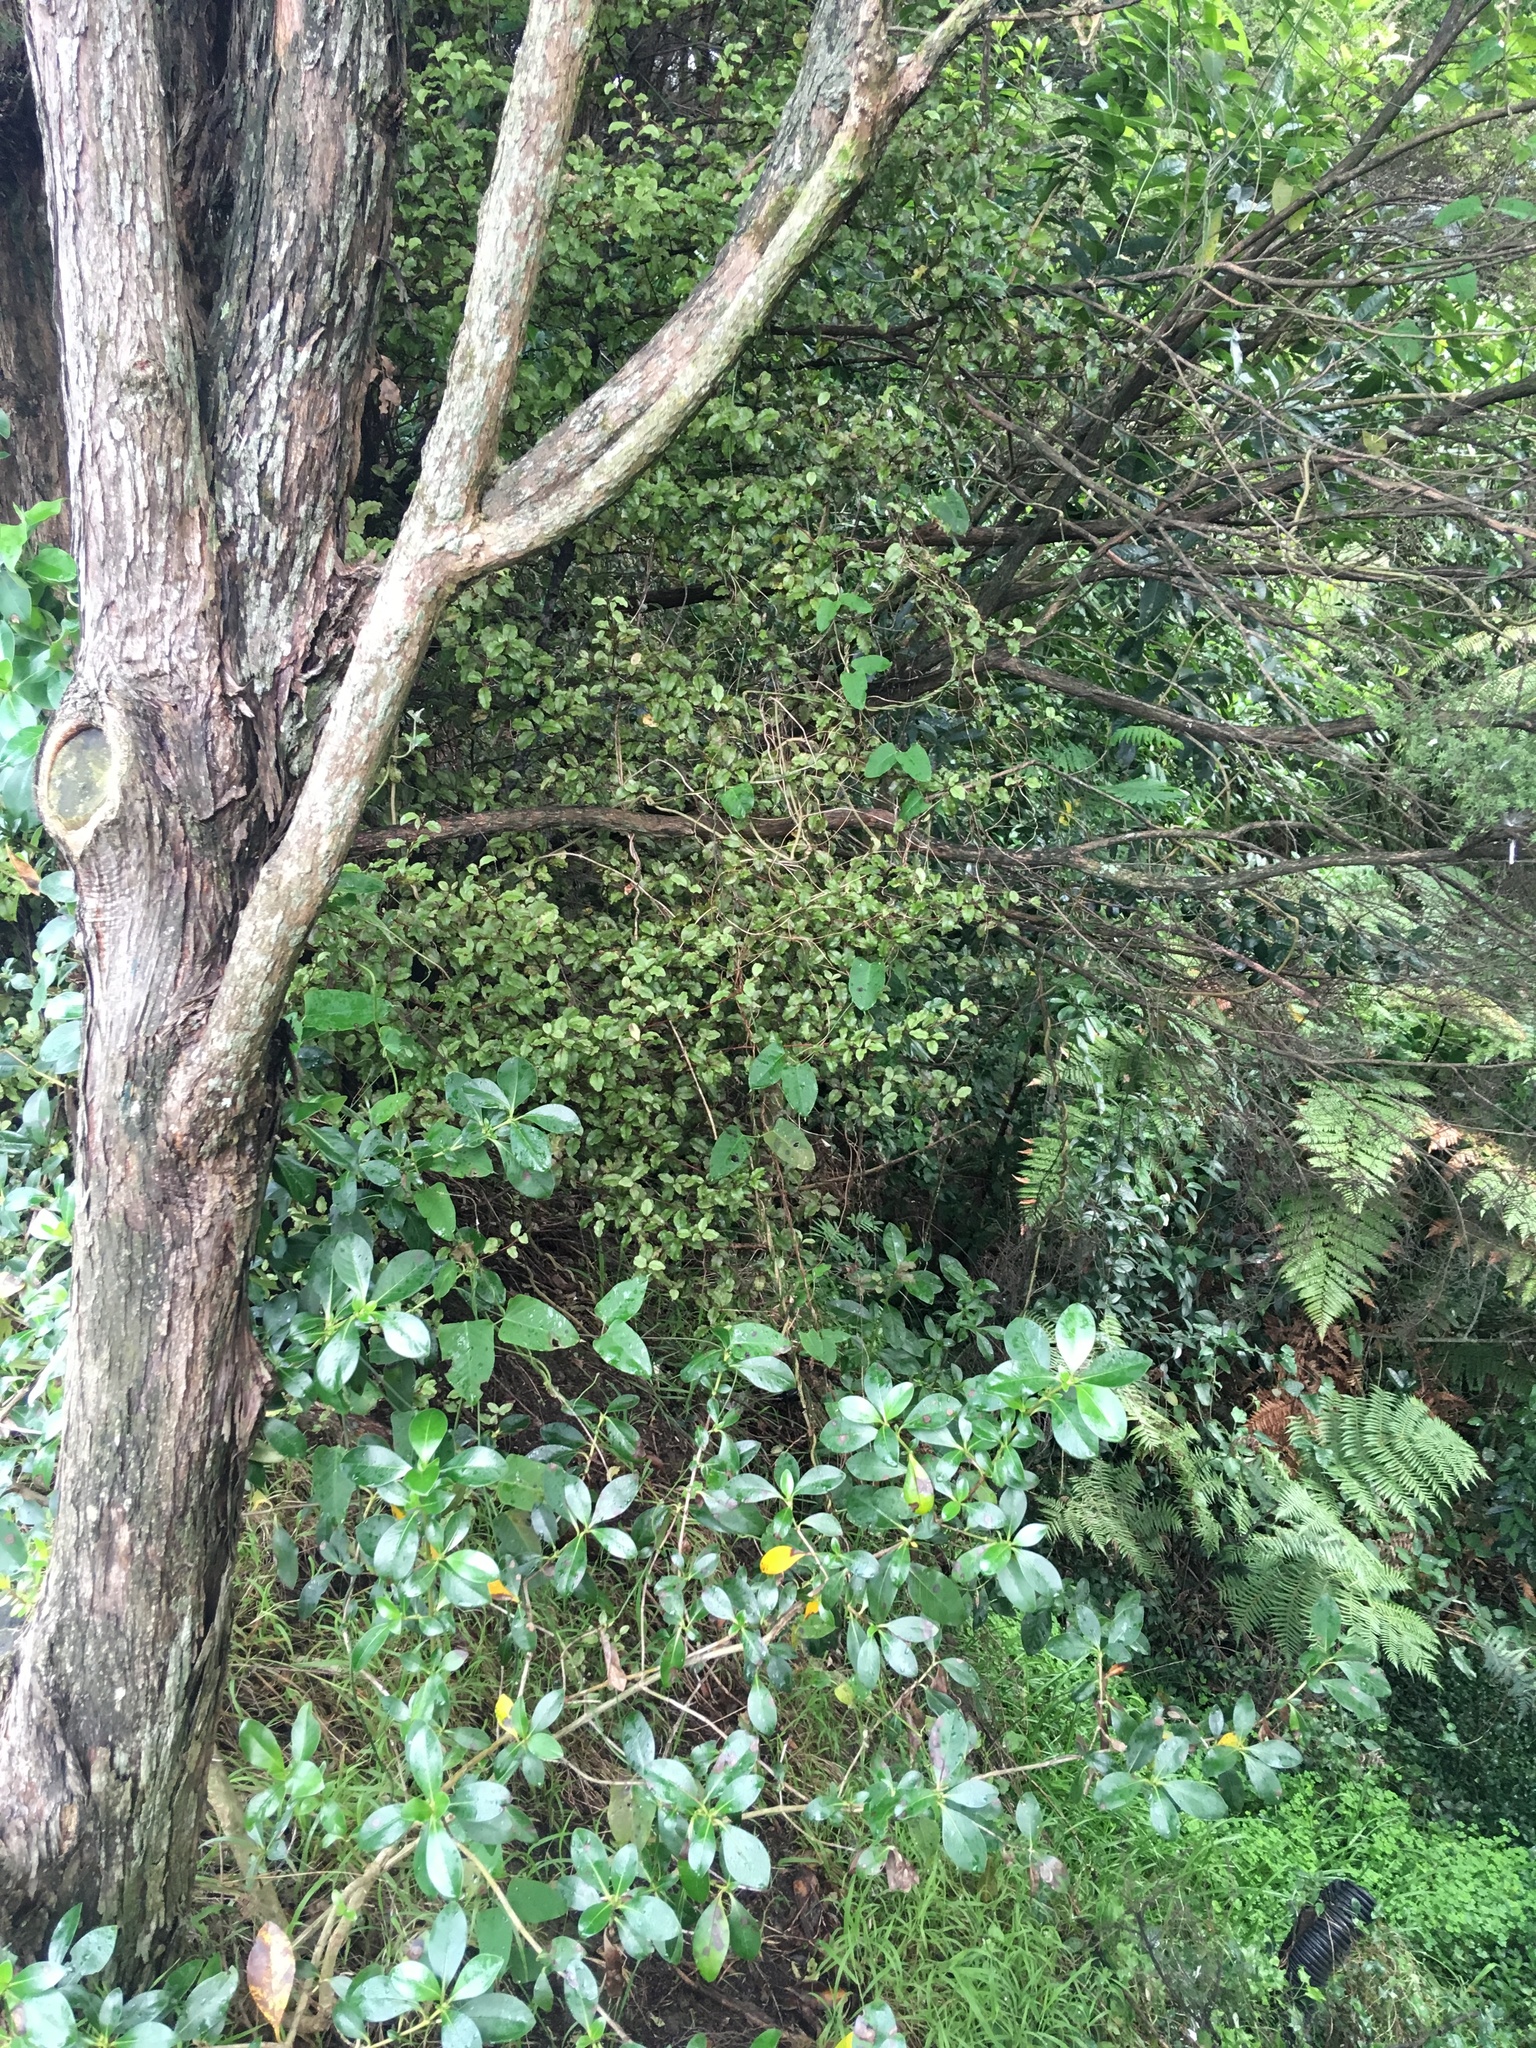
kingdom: Plantae
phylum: Tracheophyta
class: Magnoliopsida
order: Gentianales
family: Rubiaceae
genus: Coprosma
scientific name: Coprosma robusta
